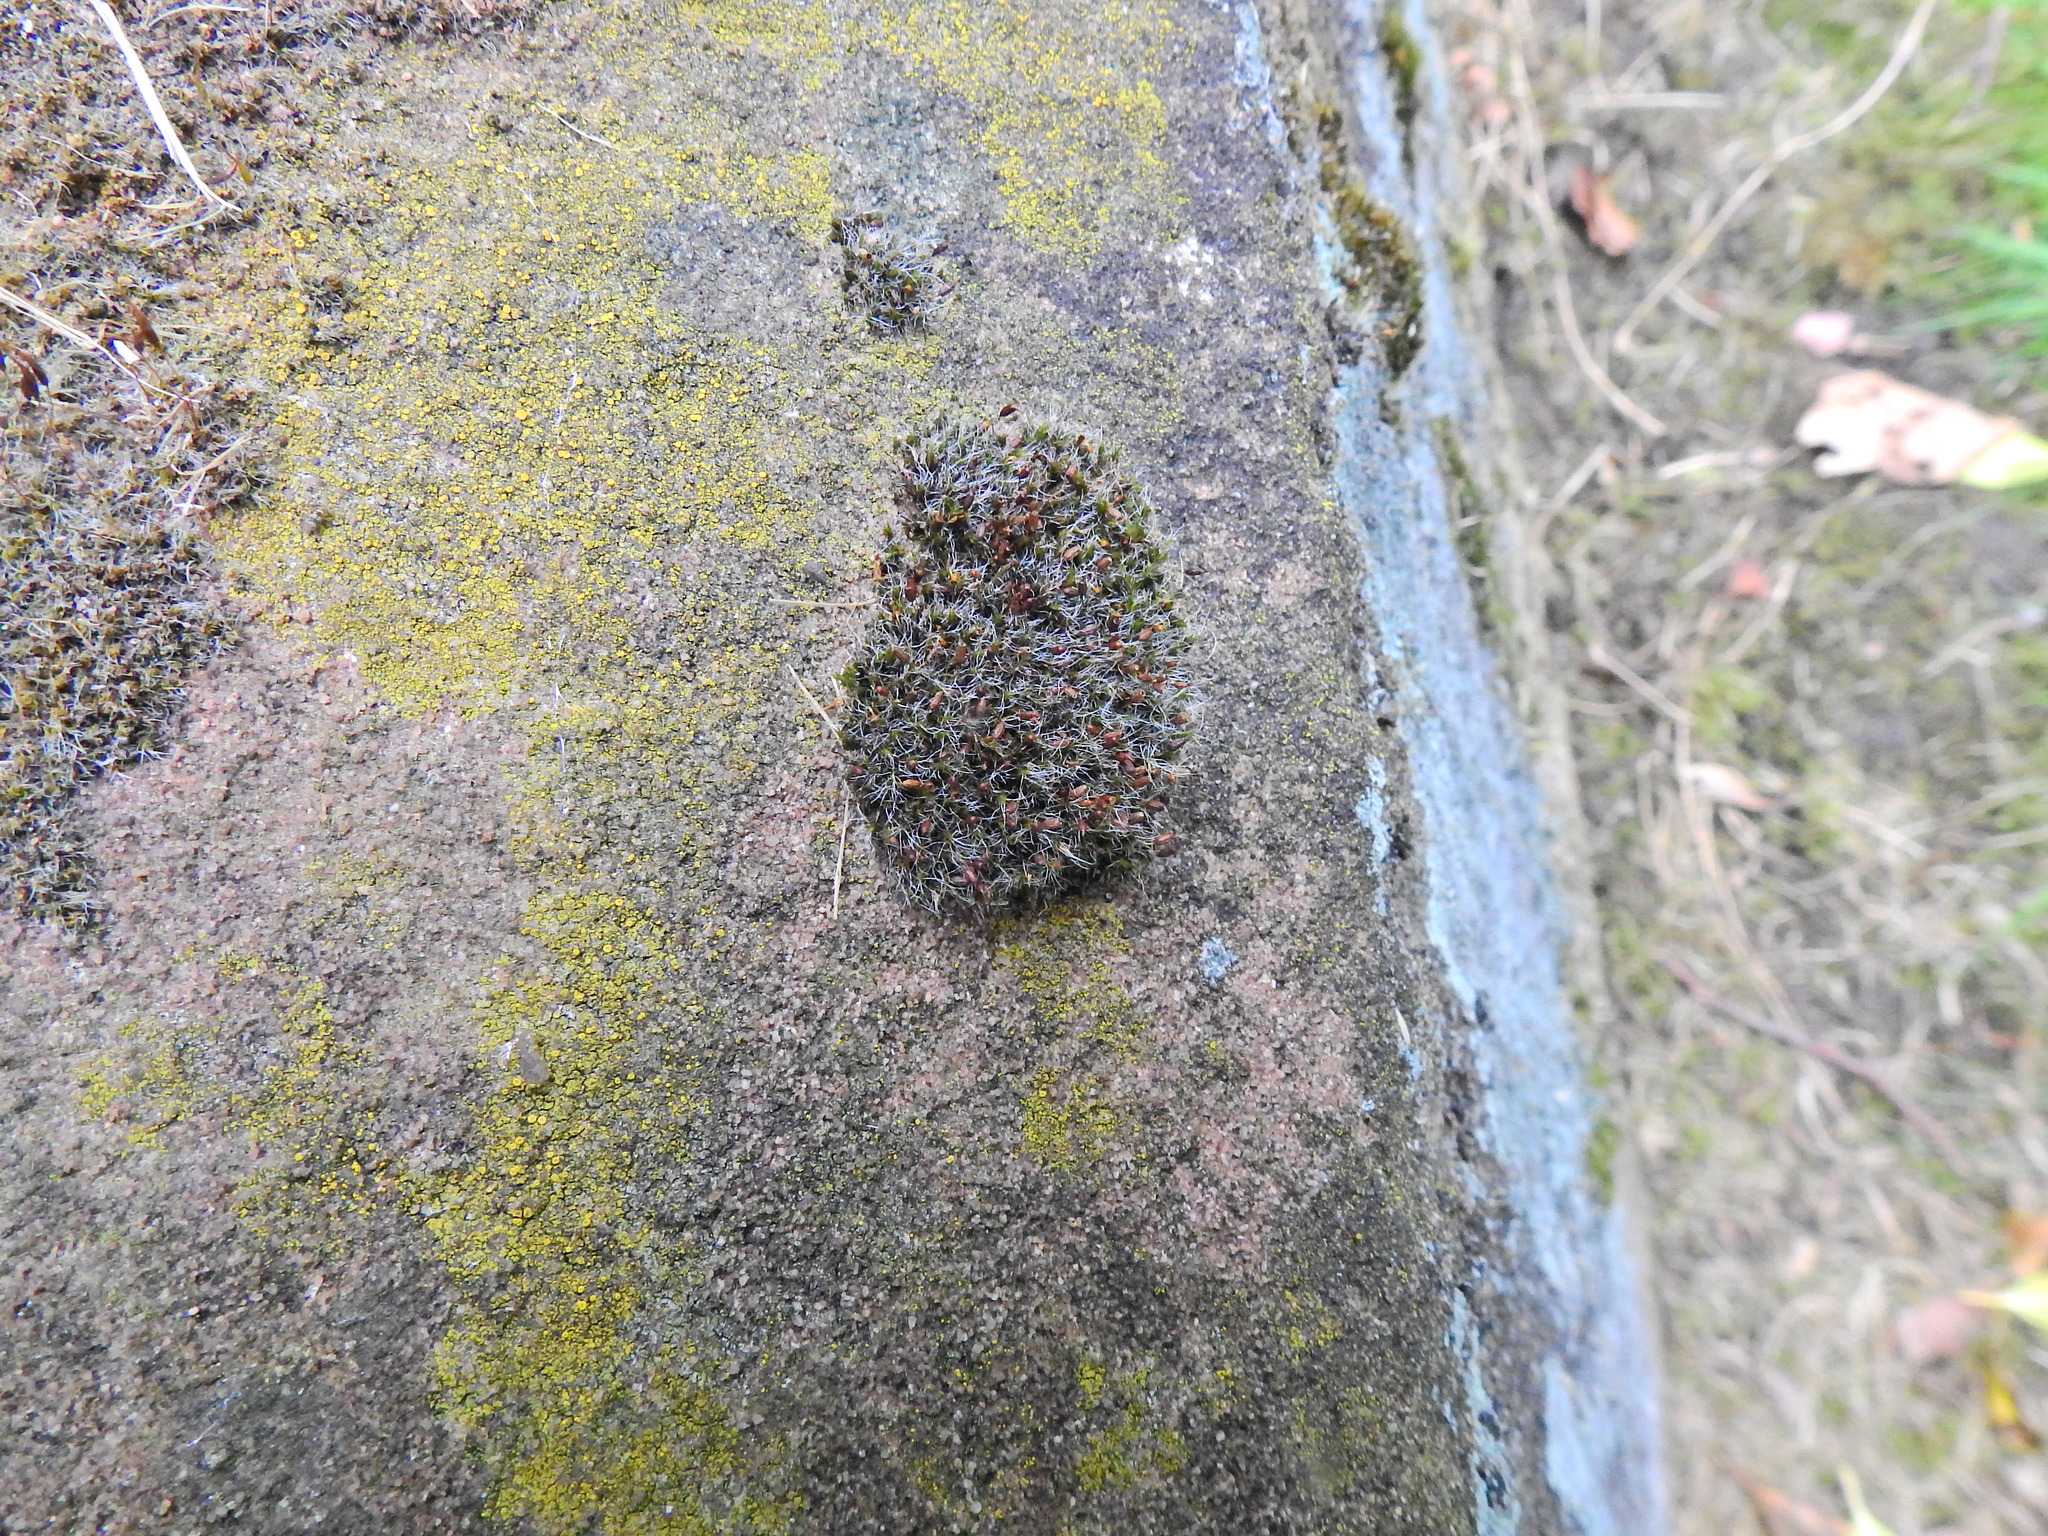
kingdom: Plantae
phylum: Bryophyta
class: Bryopsida
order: Grimmiales
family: Grimmiaceae
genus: Grimmia
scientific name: Grimmia pulvinata
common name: Grey-cushioned grimmia
